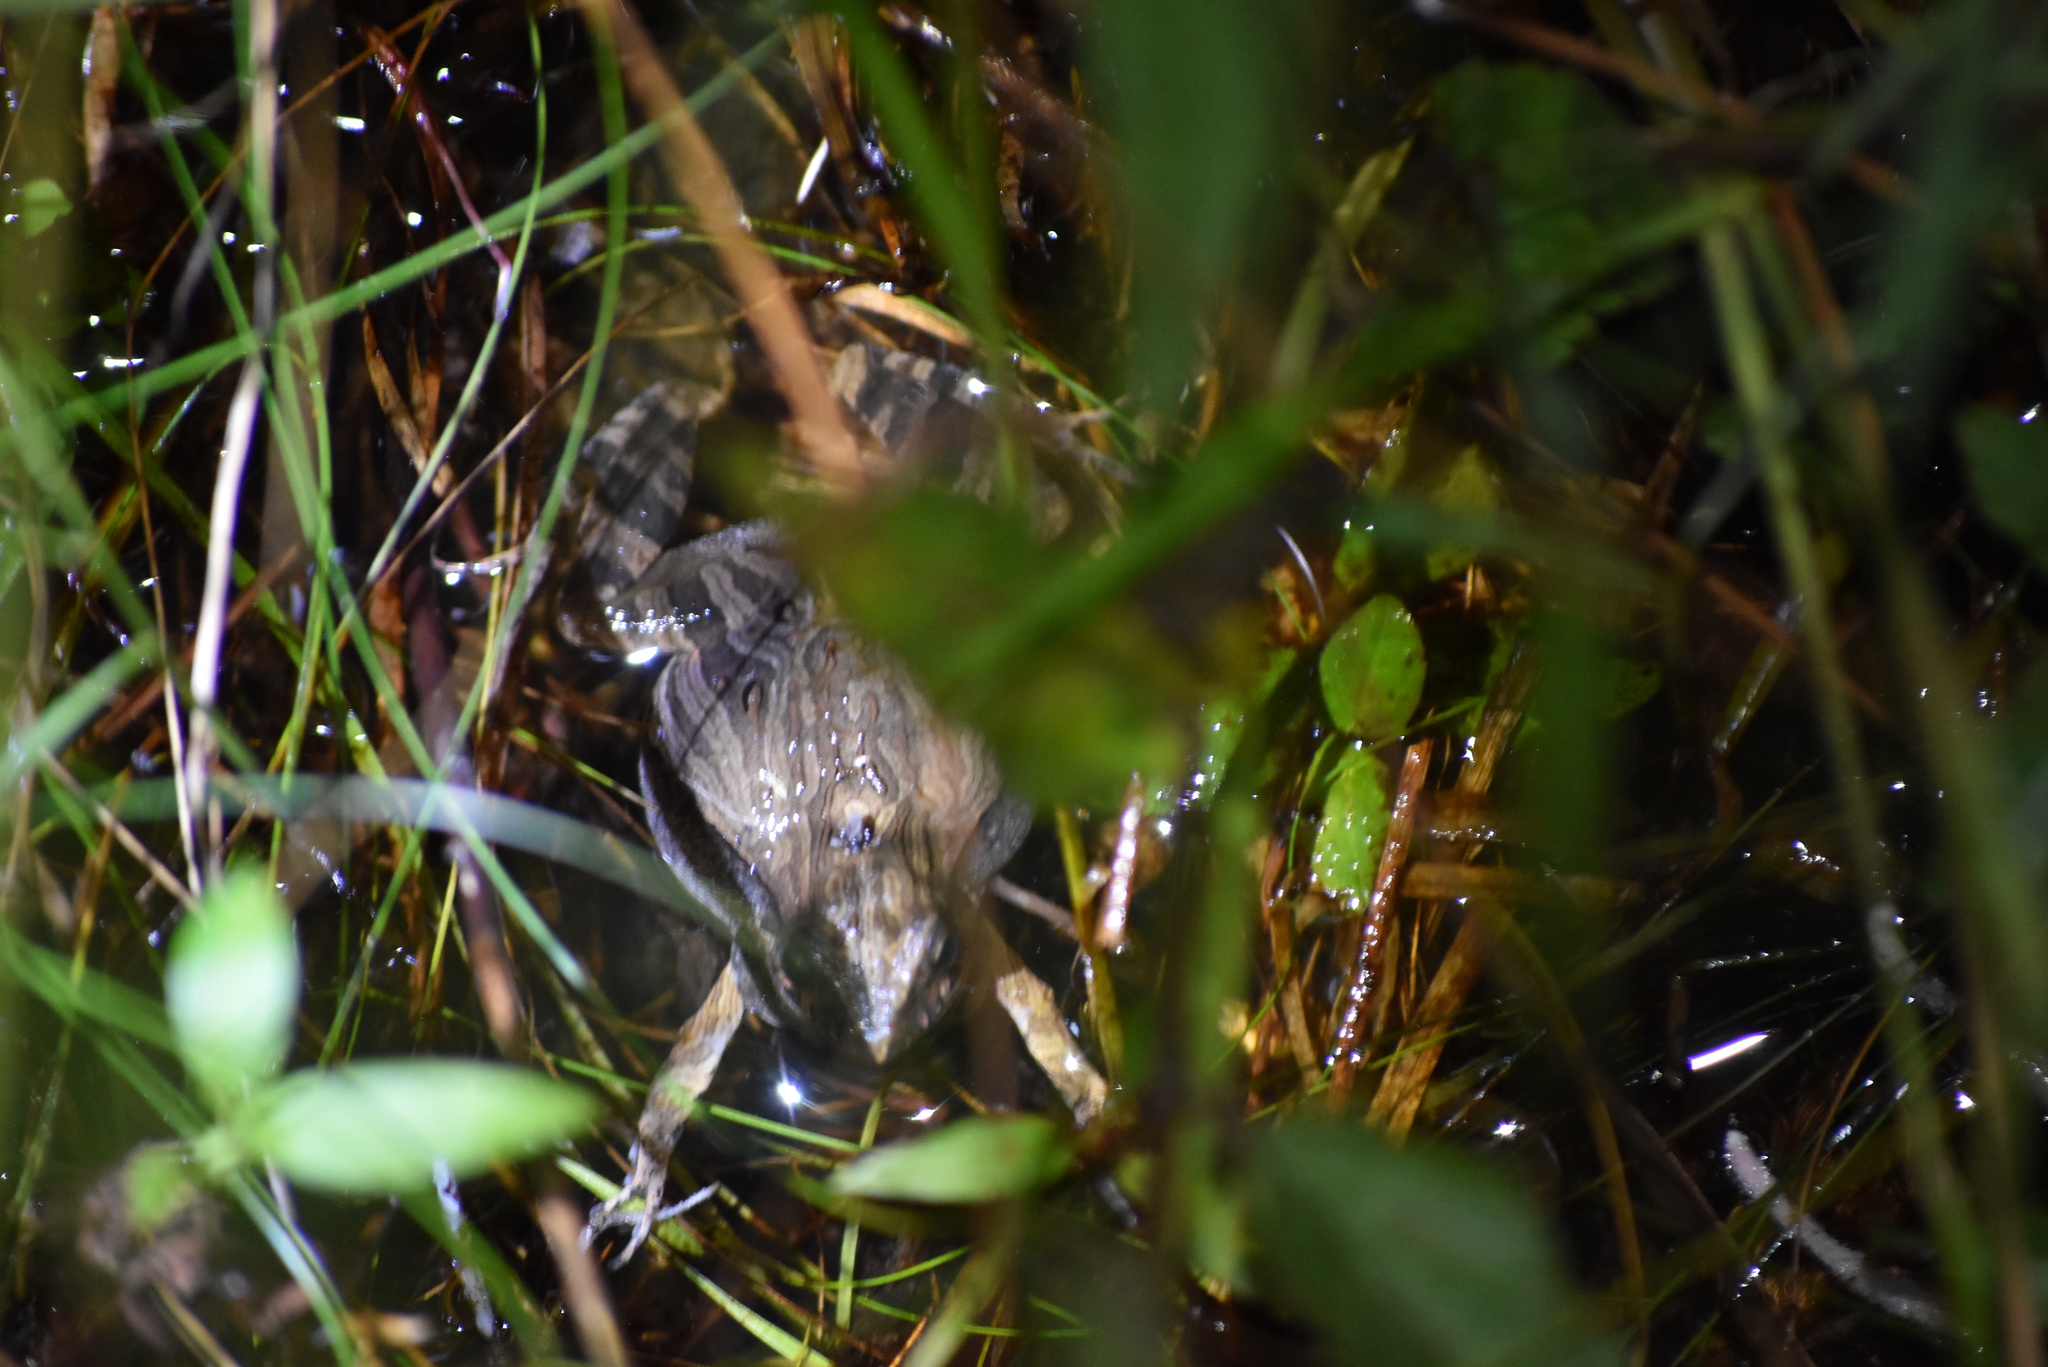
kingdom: Animalia
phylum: Chordata
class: Amphibia
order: Anura
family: Leptodactylidae
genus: Physalaemus
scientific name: Physalaemus cuvieri
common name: Barker frog
